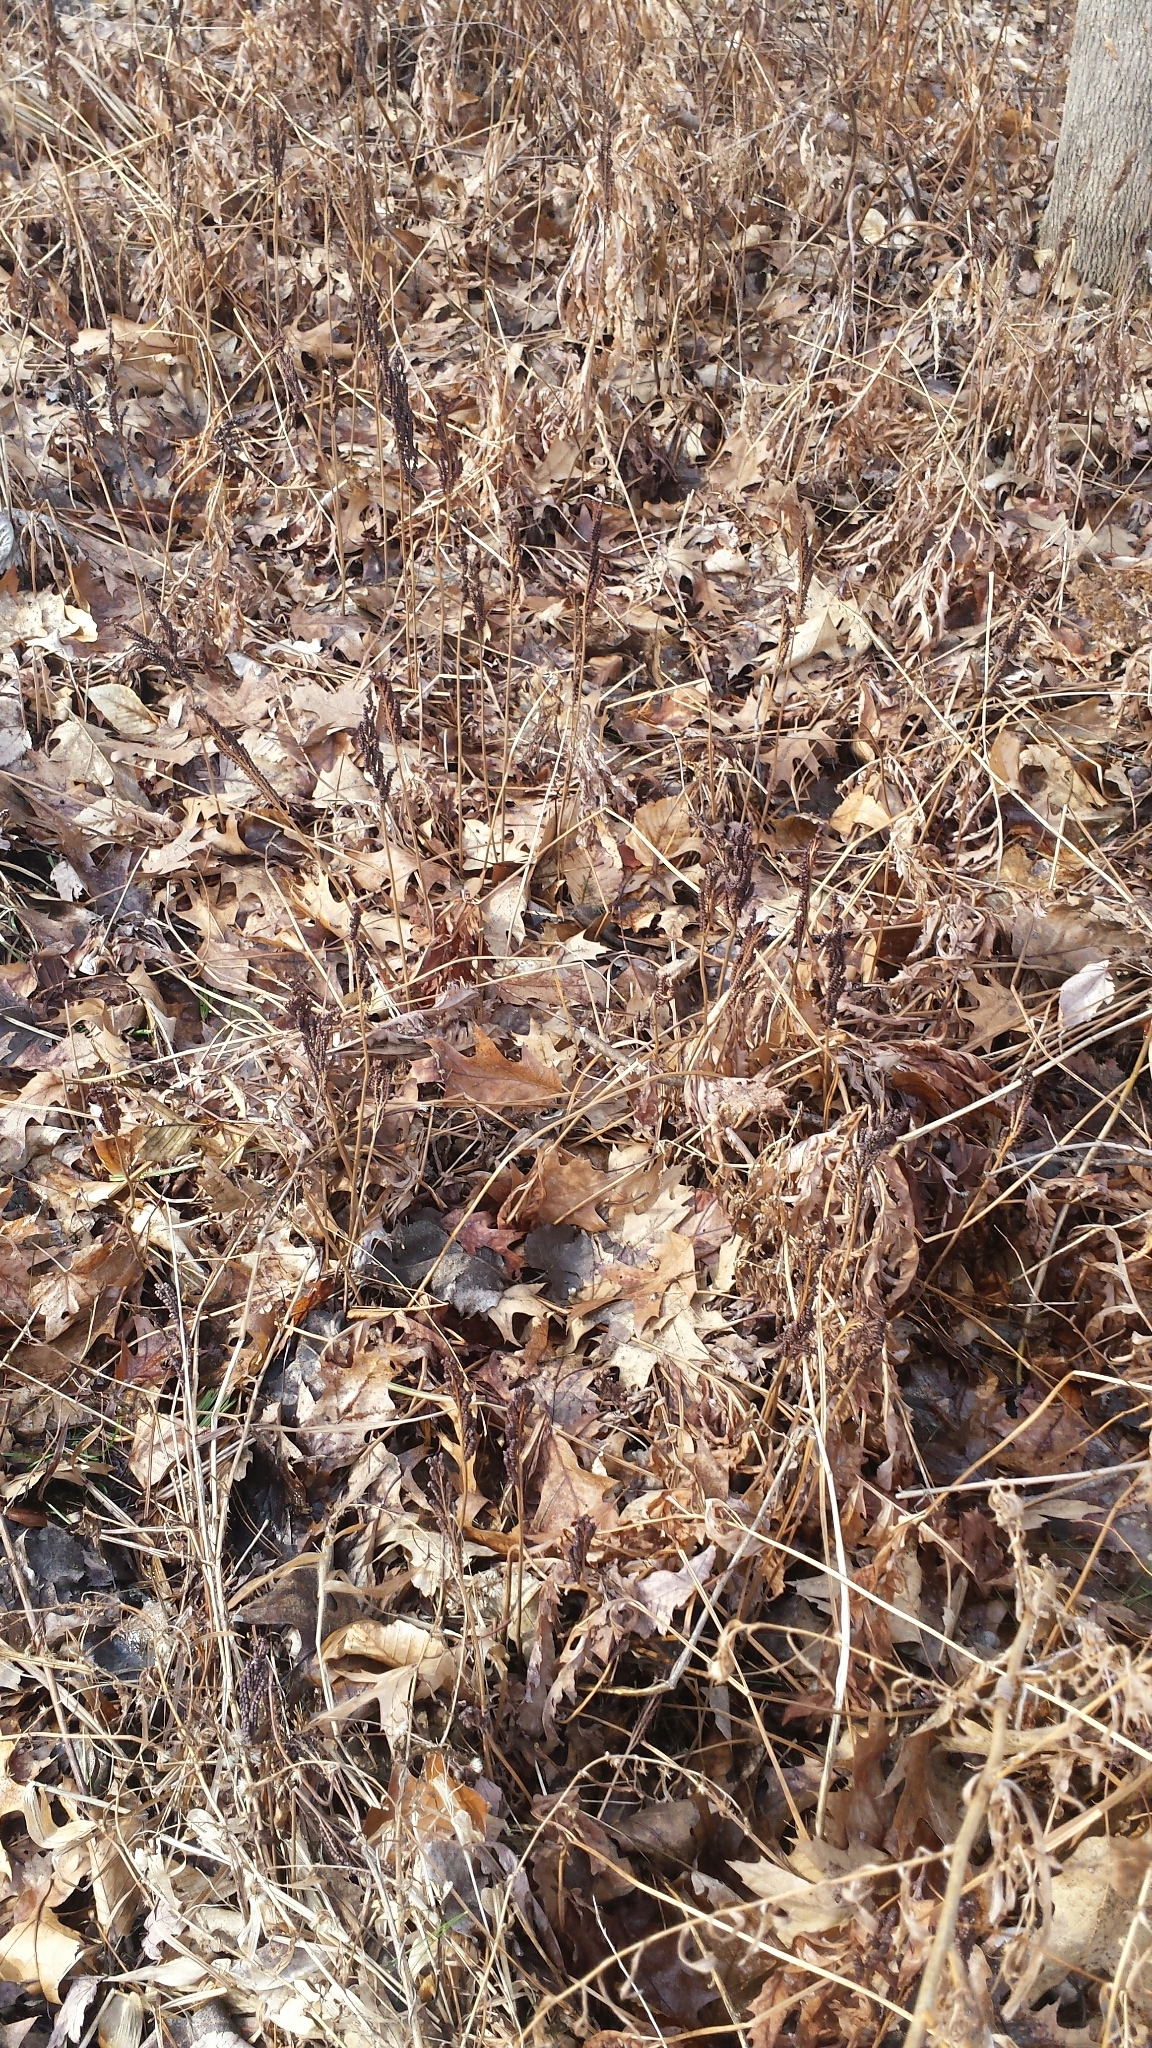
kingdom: Plantae
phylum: Tracheophyta
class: Polypodiopsida
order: Polypodiales
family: Onocleaceae
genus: Onoclea
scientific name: Onoclea sensibilis
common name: Sensitive fern
